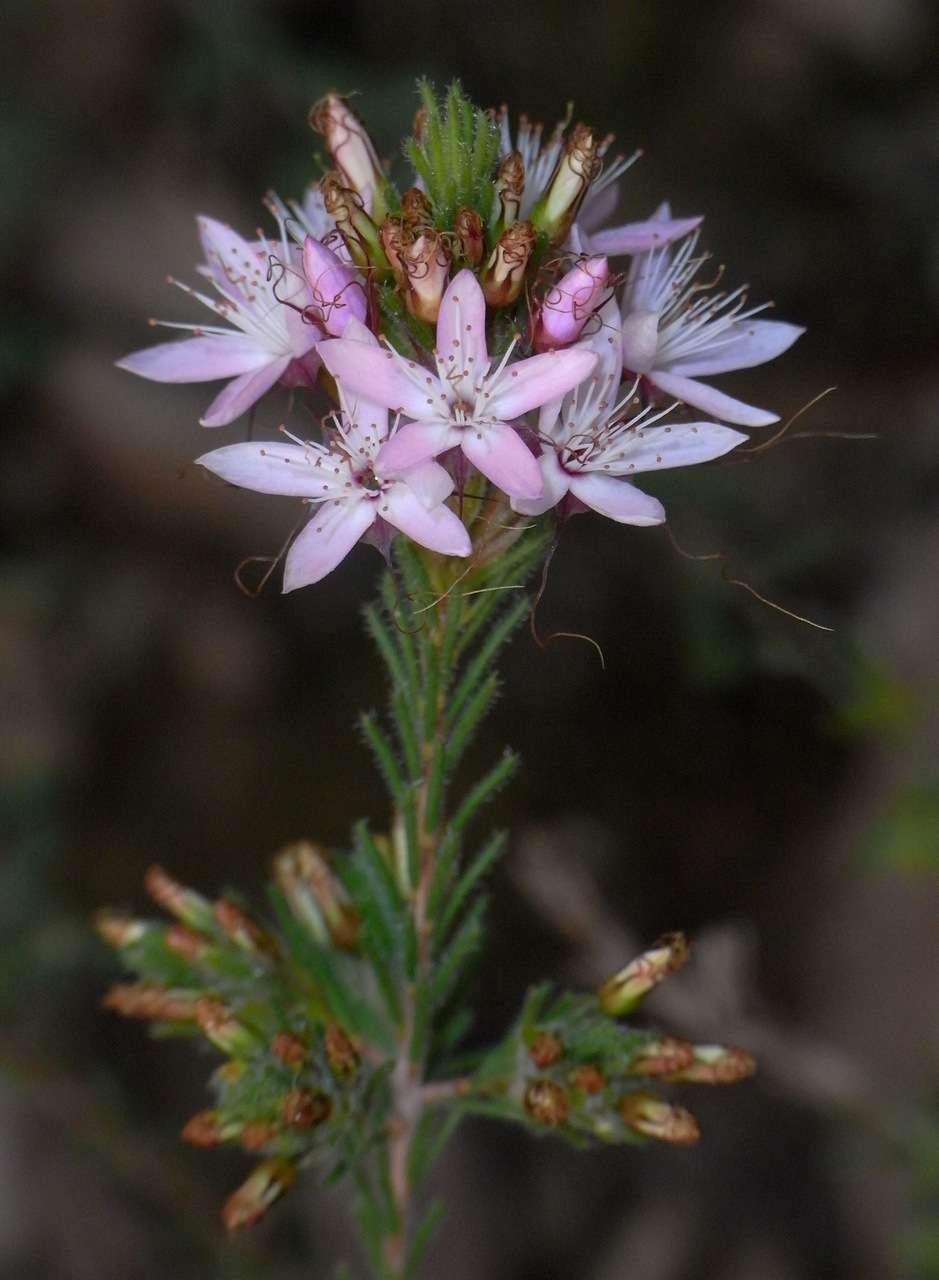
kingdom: Plantae
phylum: Tracheophyta
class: Magnoliopsida
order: Myrtales
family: Myrtaceae
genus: Calytrix
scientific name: Calytrix tetragona
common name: Common fringe myrtle
